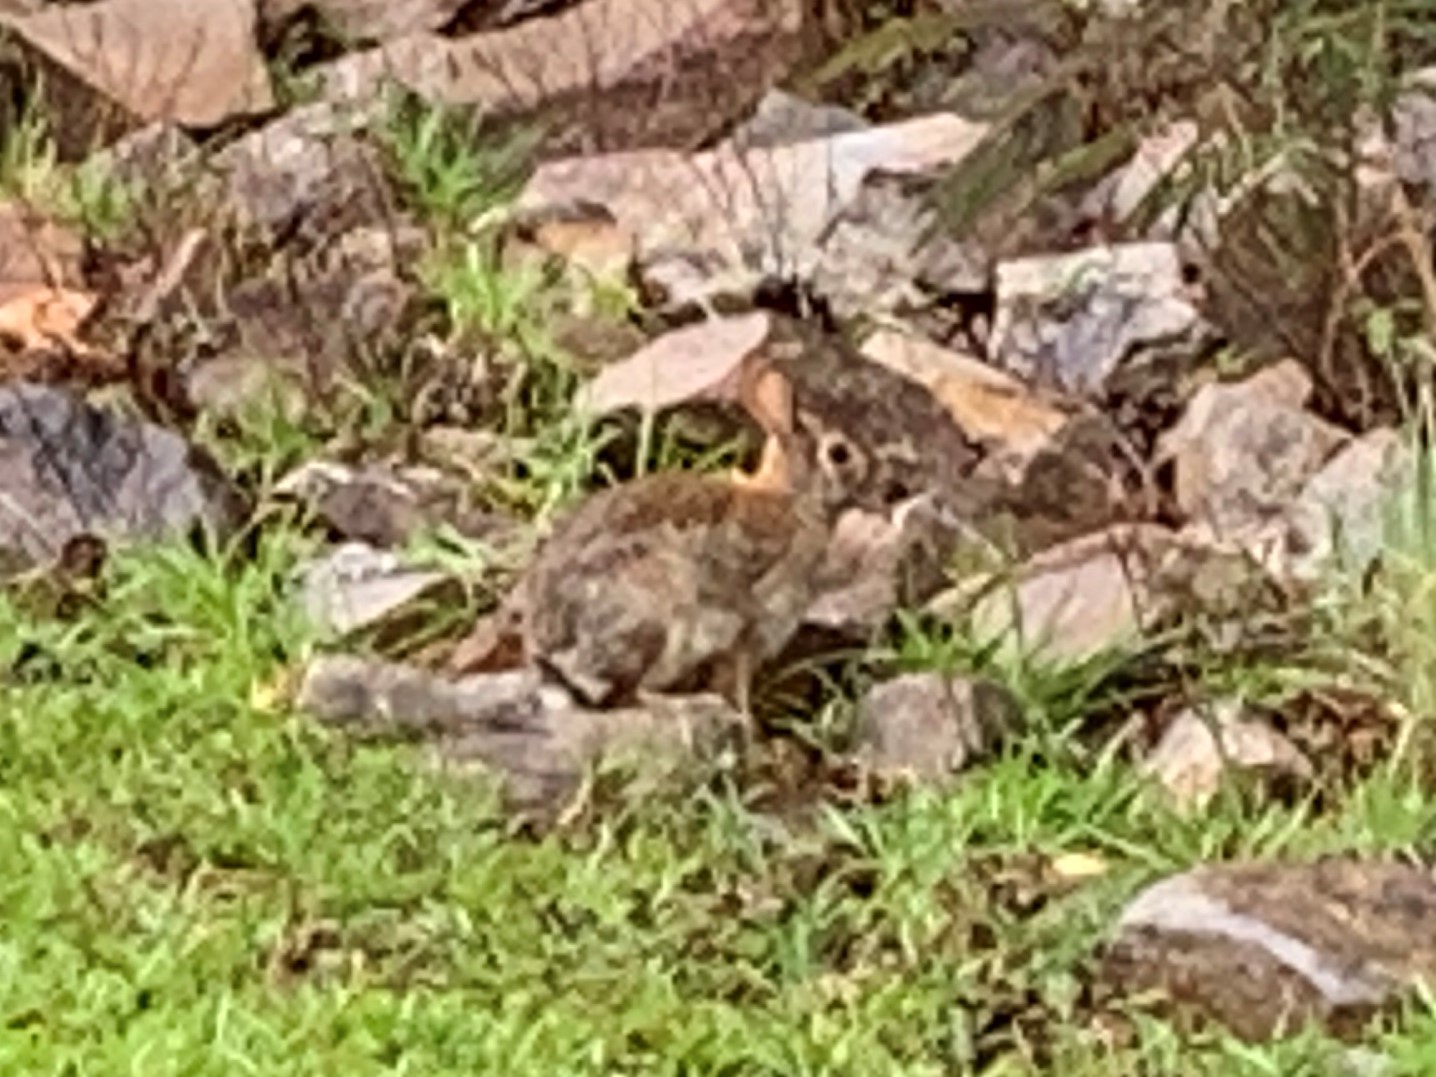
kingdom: Animalia
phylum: Chordata
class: Mammalia
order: Lagomorpha
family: Leporidae
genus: Sylvilagus
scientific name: Sylvilagus floridanus
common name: Eastern cottontail
